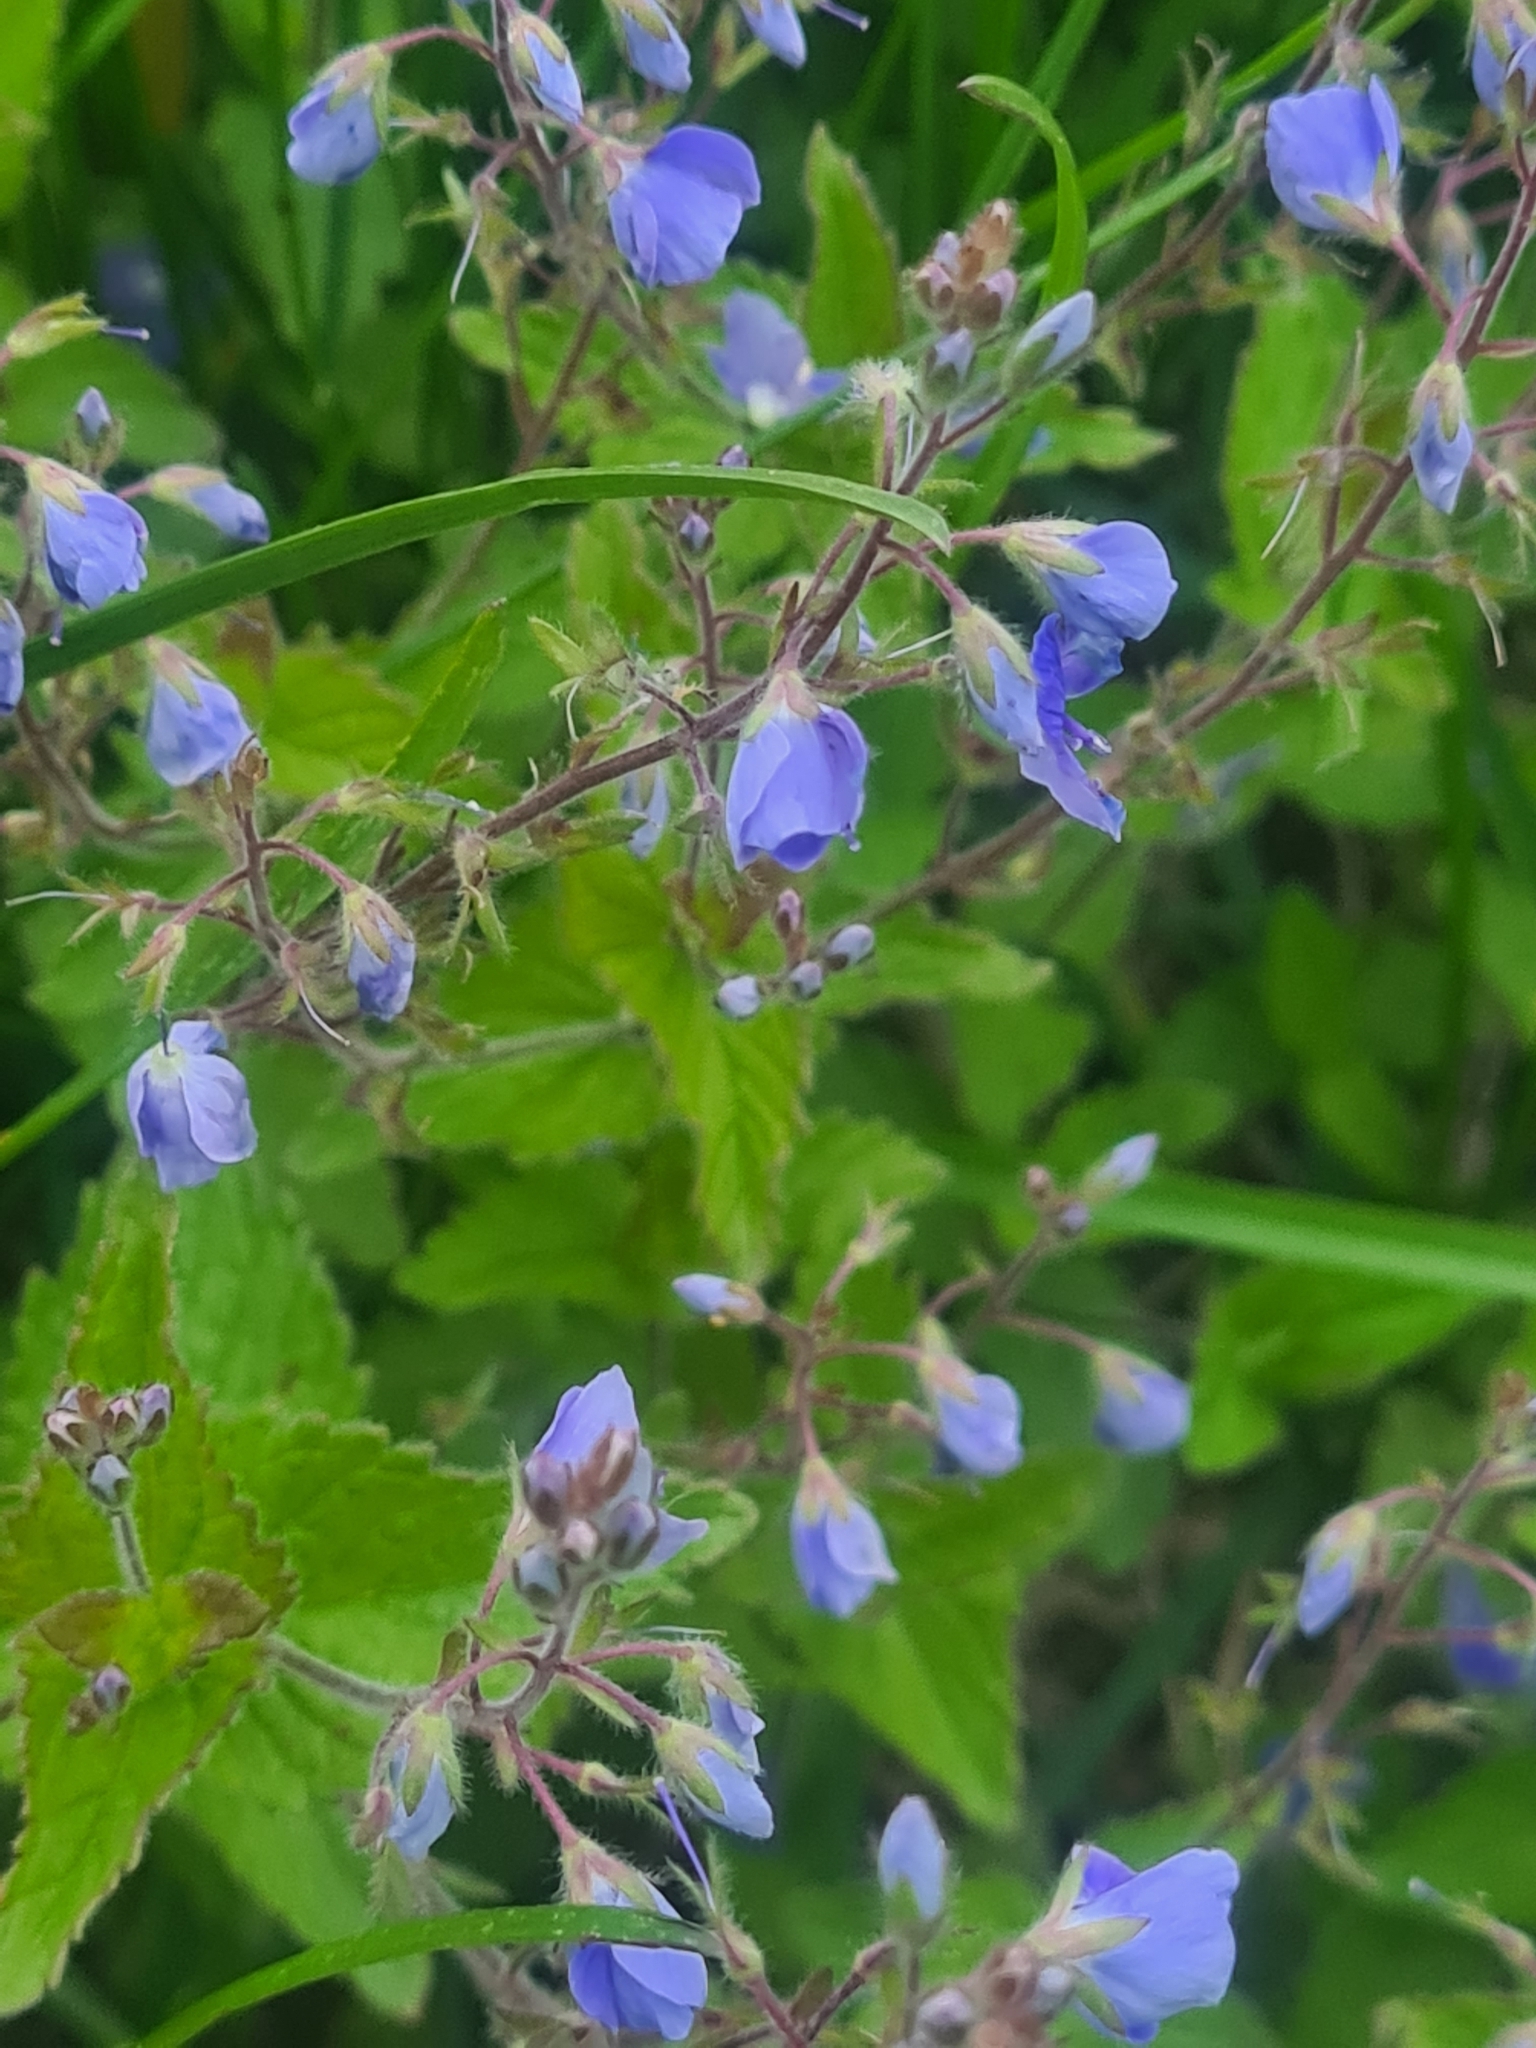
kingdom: Plantae
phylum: Tracheophyta
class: Magnoliopsida
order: Lamiales
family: Plantaginaceae
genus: Veronica
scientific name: Veronica chamaedrys
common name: Germander speedwell
